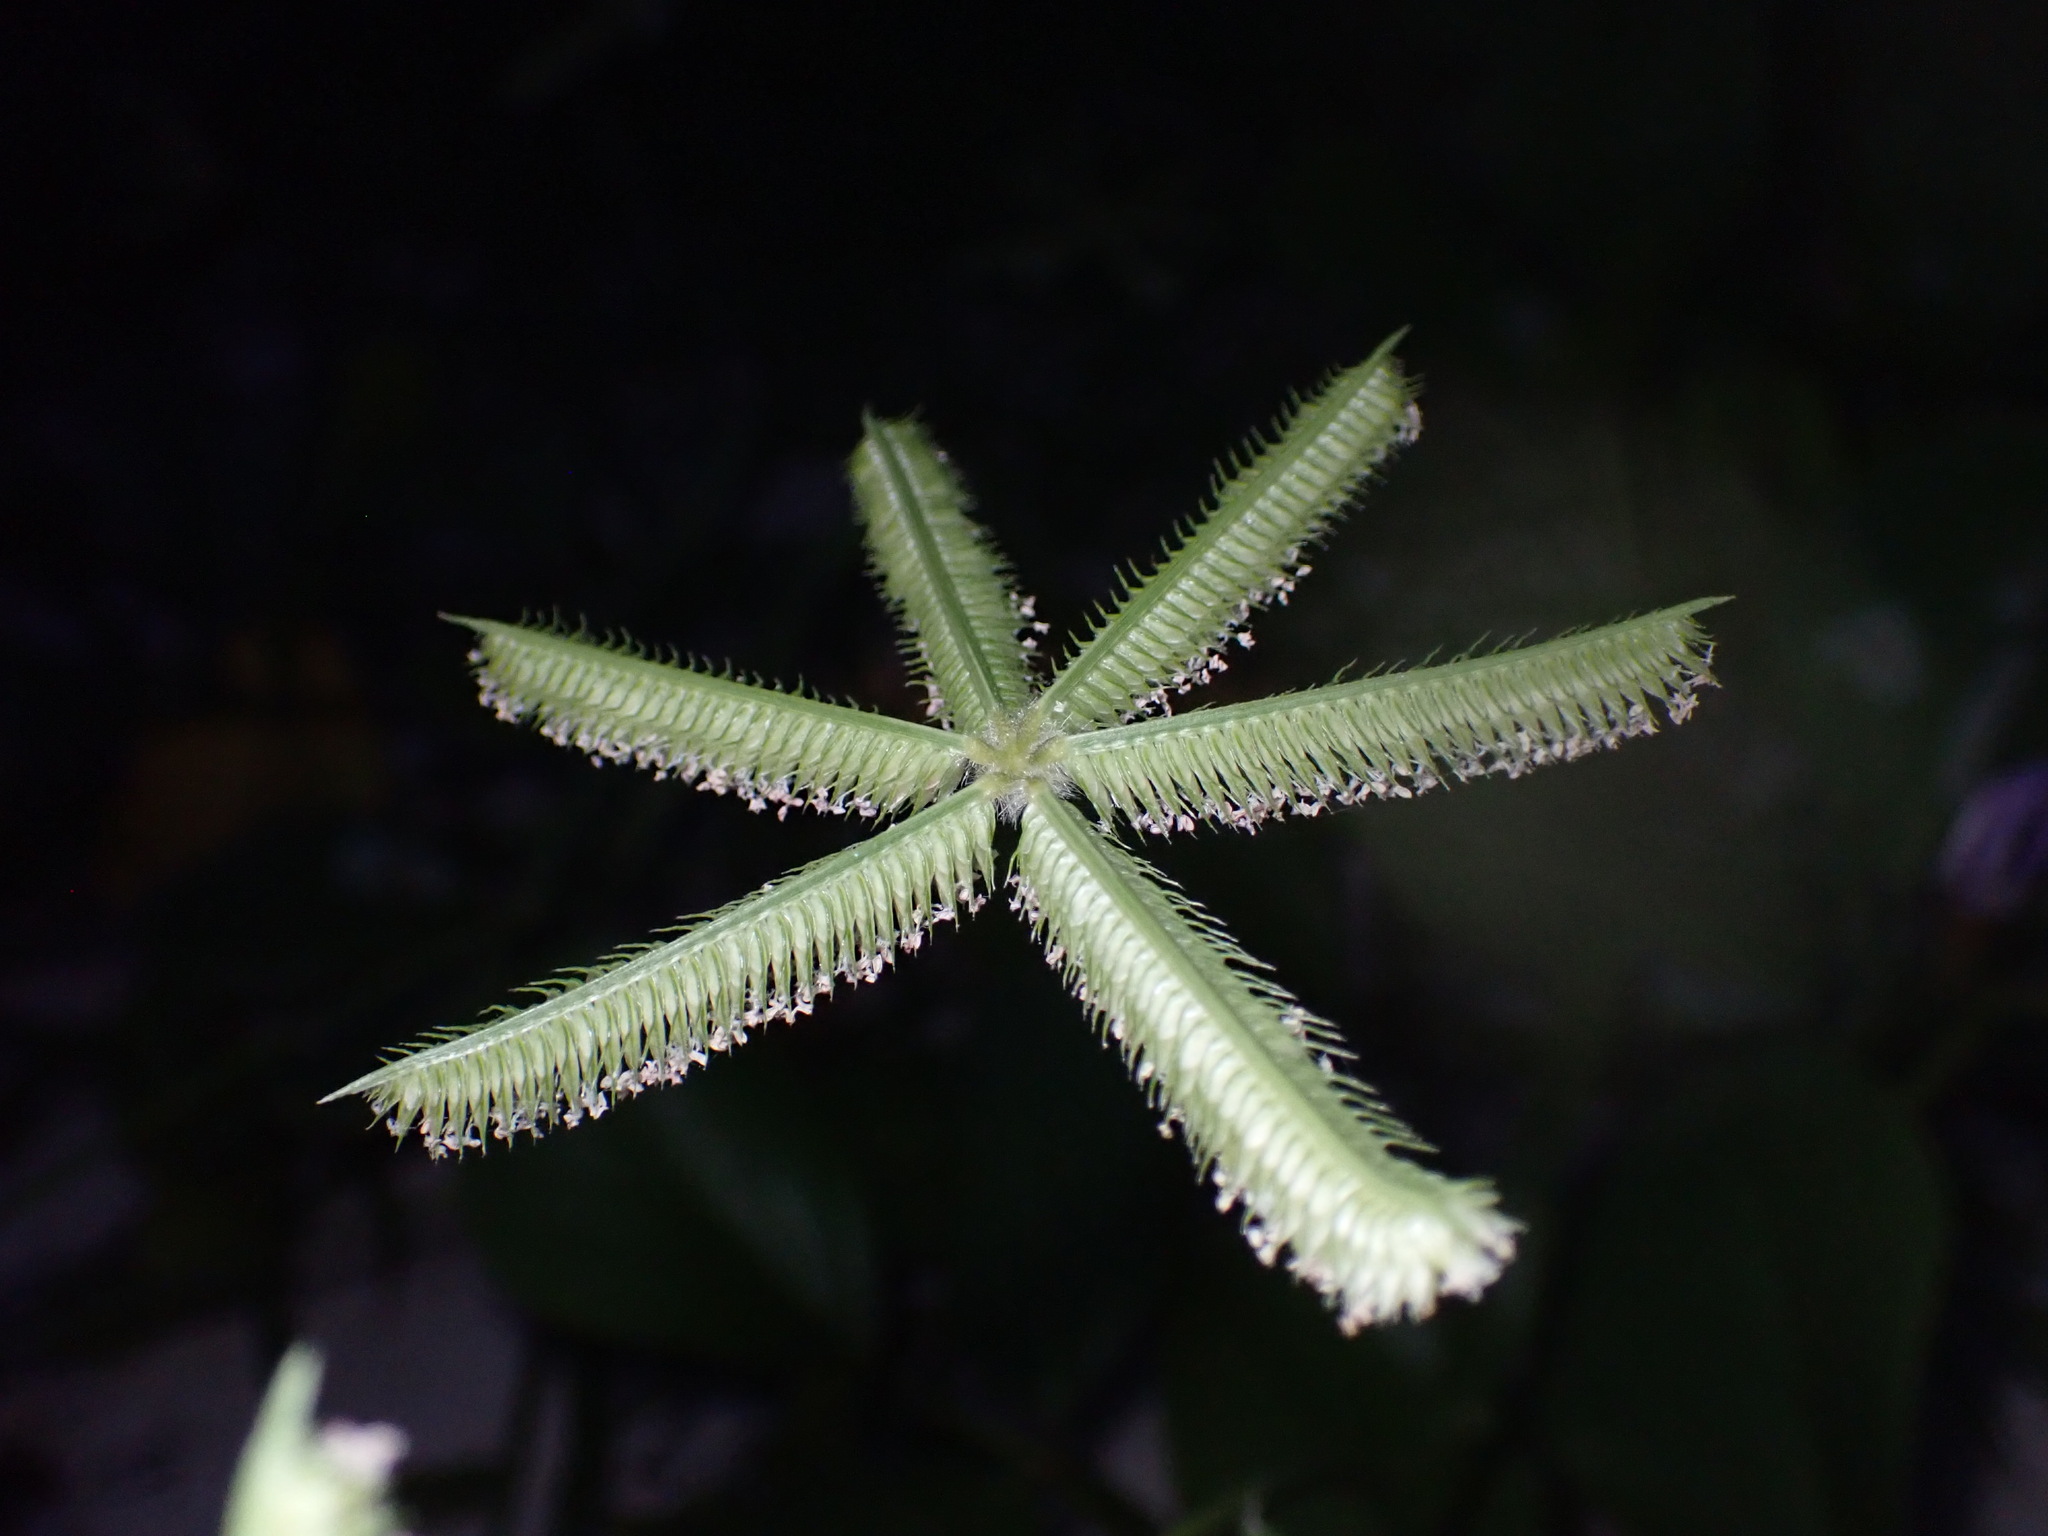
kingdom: Plantae
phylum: Tracheophyta
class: Liliopsida
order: Poales
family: Poaceae
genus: Dactyloctenium
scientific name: Dactyloctenium aegyptium
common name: Egyptian grass
